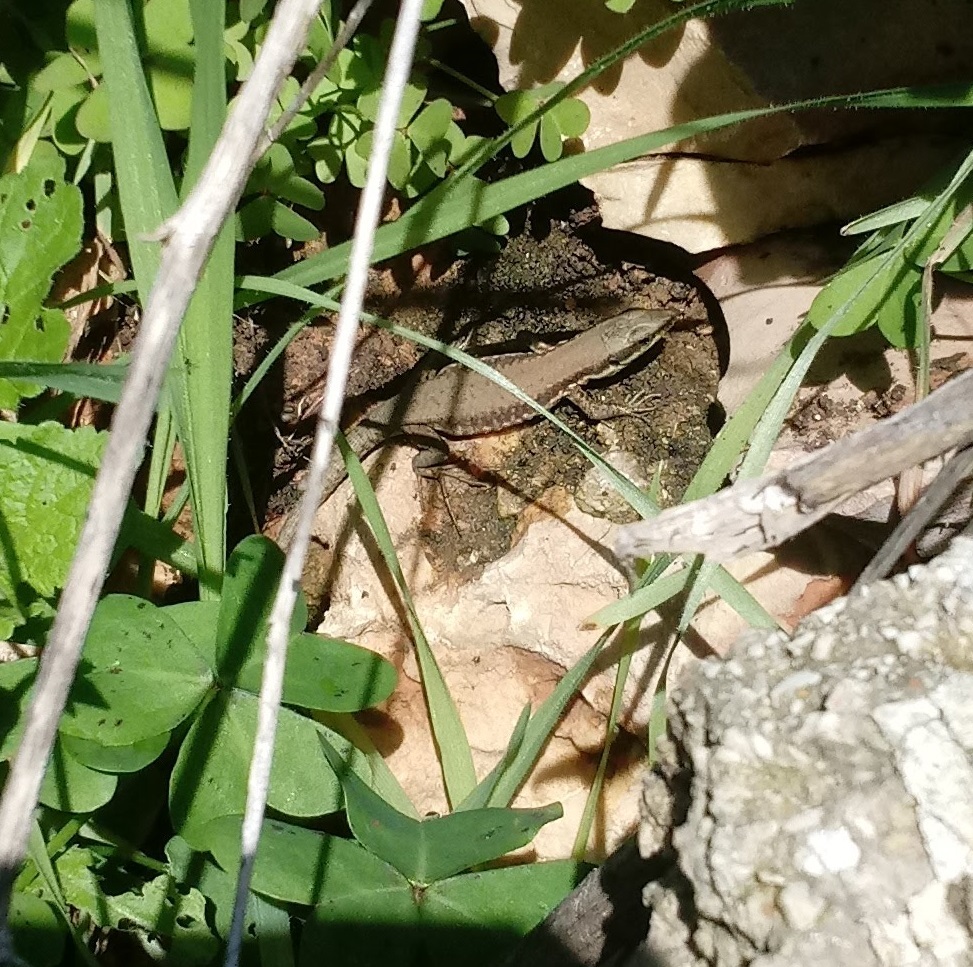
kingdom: Animalia
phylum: Chordata
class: Squamata
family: Lacertidae
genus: Phoenicolacerta
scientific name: Phoenicolacerta laevis
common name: Lebanon lizard
